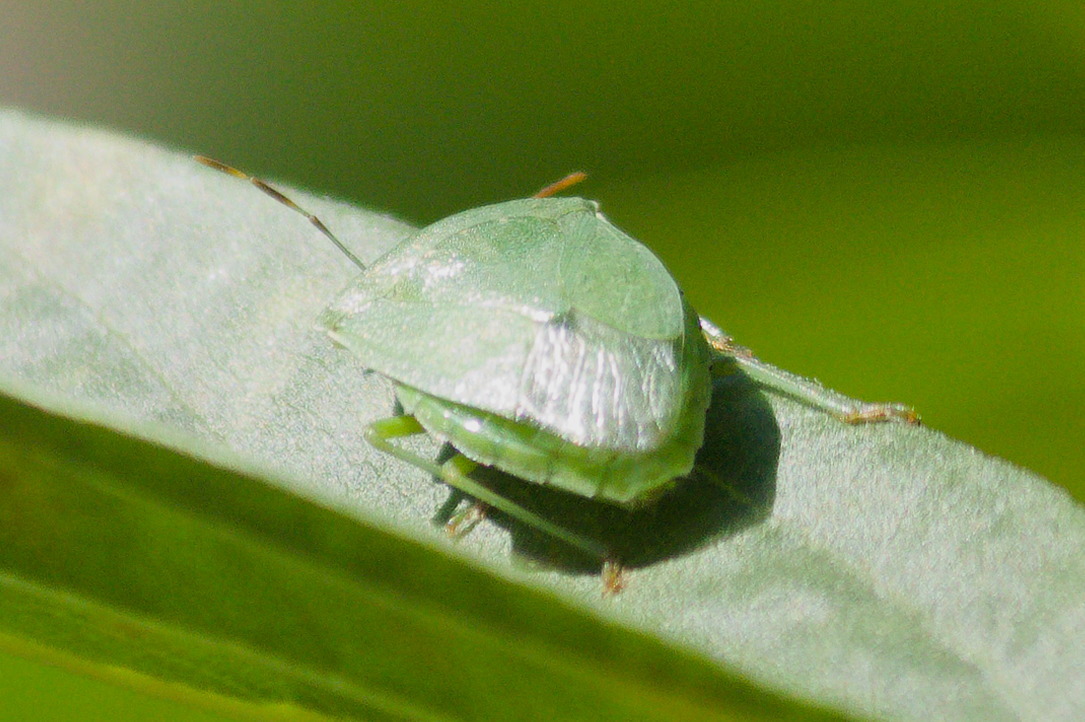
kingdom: Animalia
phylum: Arthropoda
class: Insecta
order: Hemiptera
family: Pentatomidae
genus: Nezara
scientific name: Nezara viridula
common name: Southern green stink bug
